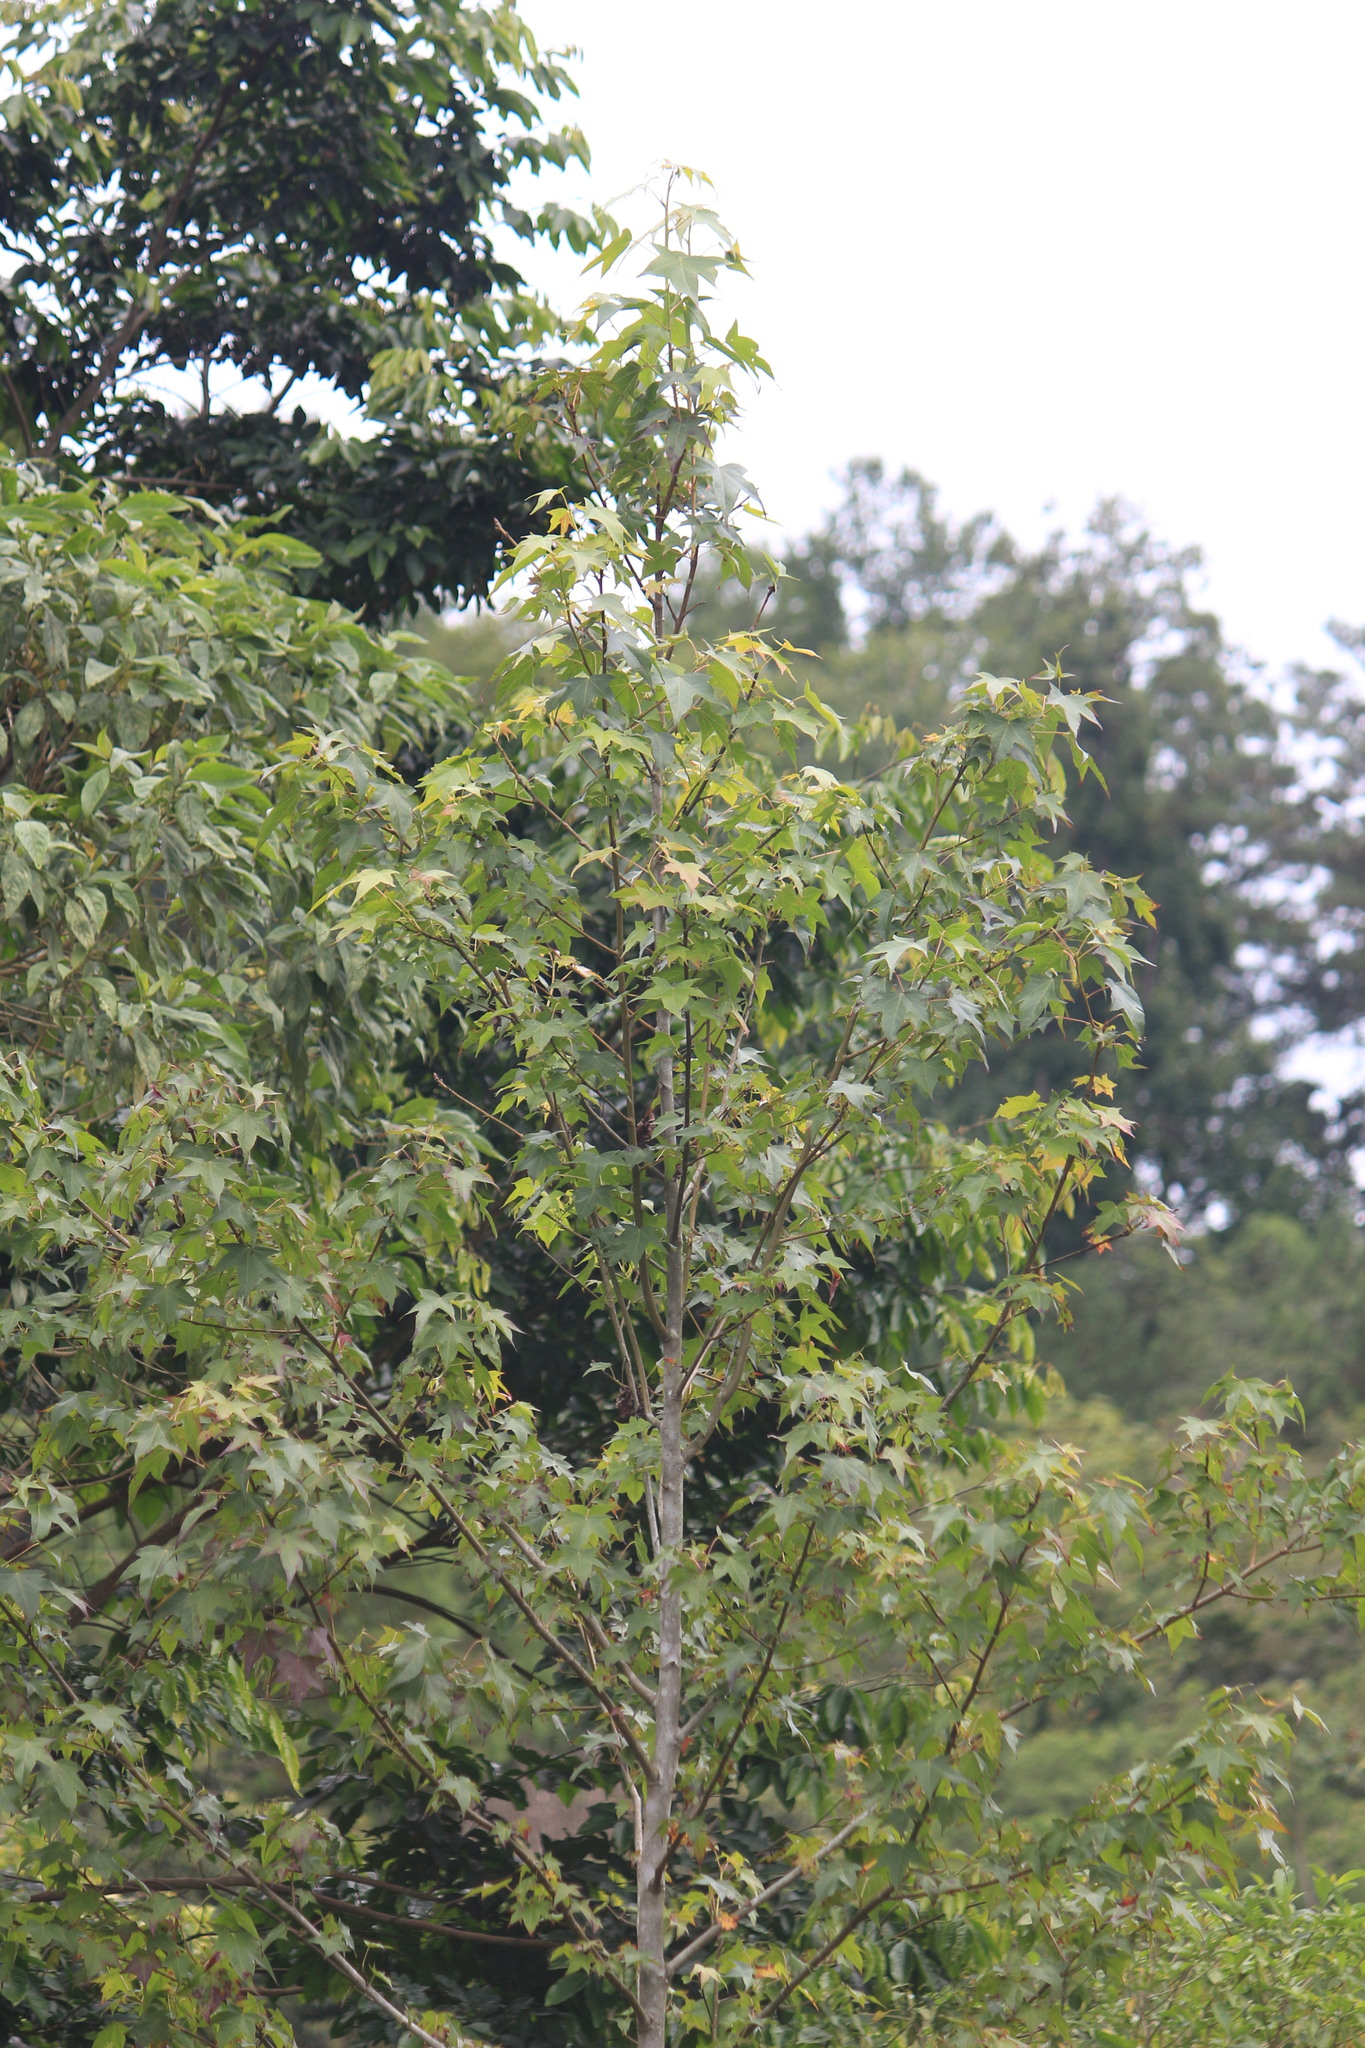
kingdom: Plantae
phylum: Tracheophyta
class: Magnoliopsida
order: Saxifragales
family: Altingiaceae
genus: Liquidambar
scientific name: Liquidambar styraciflua
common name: Sweet gum
